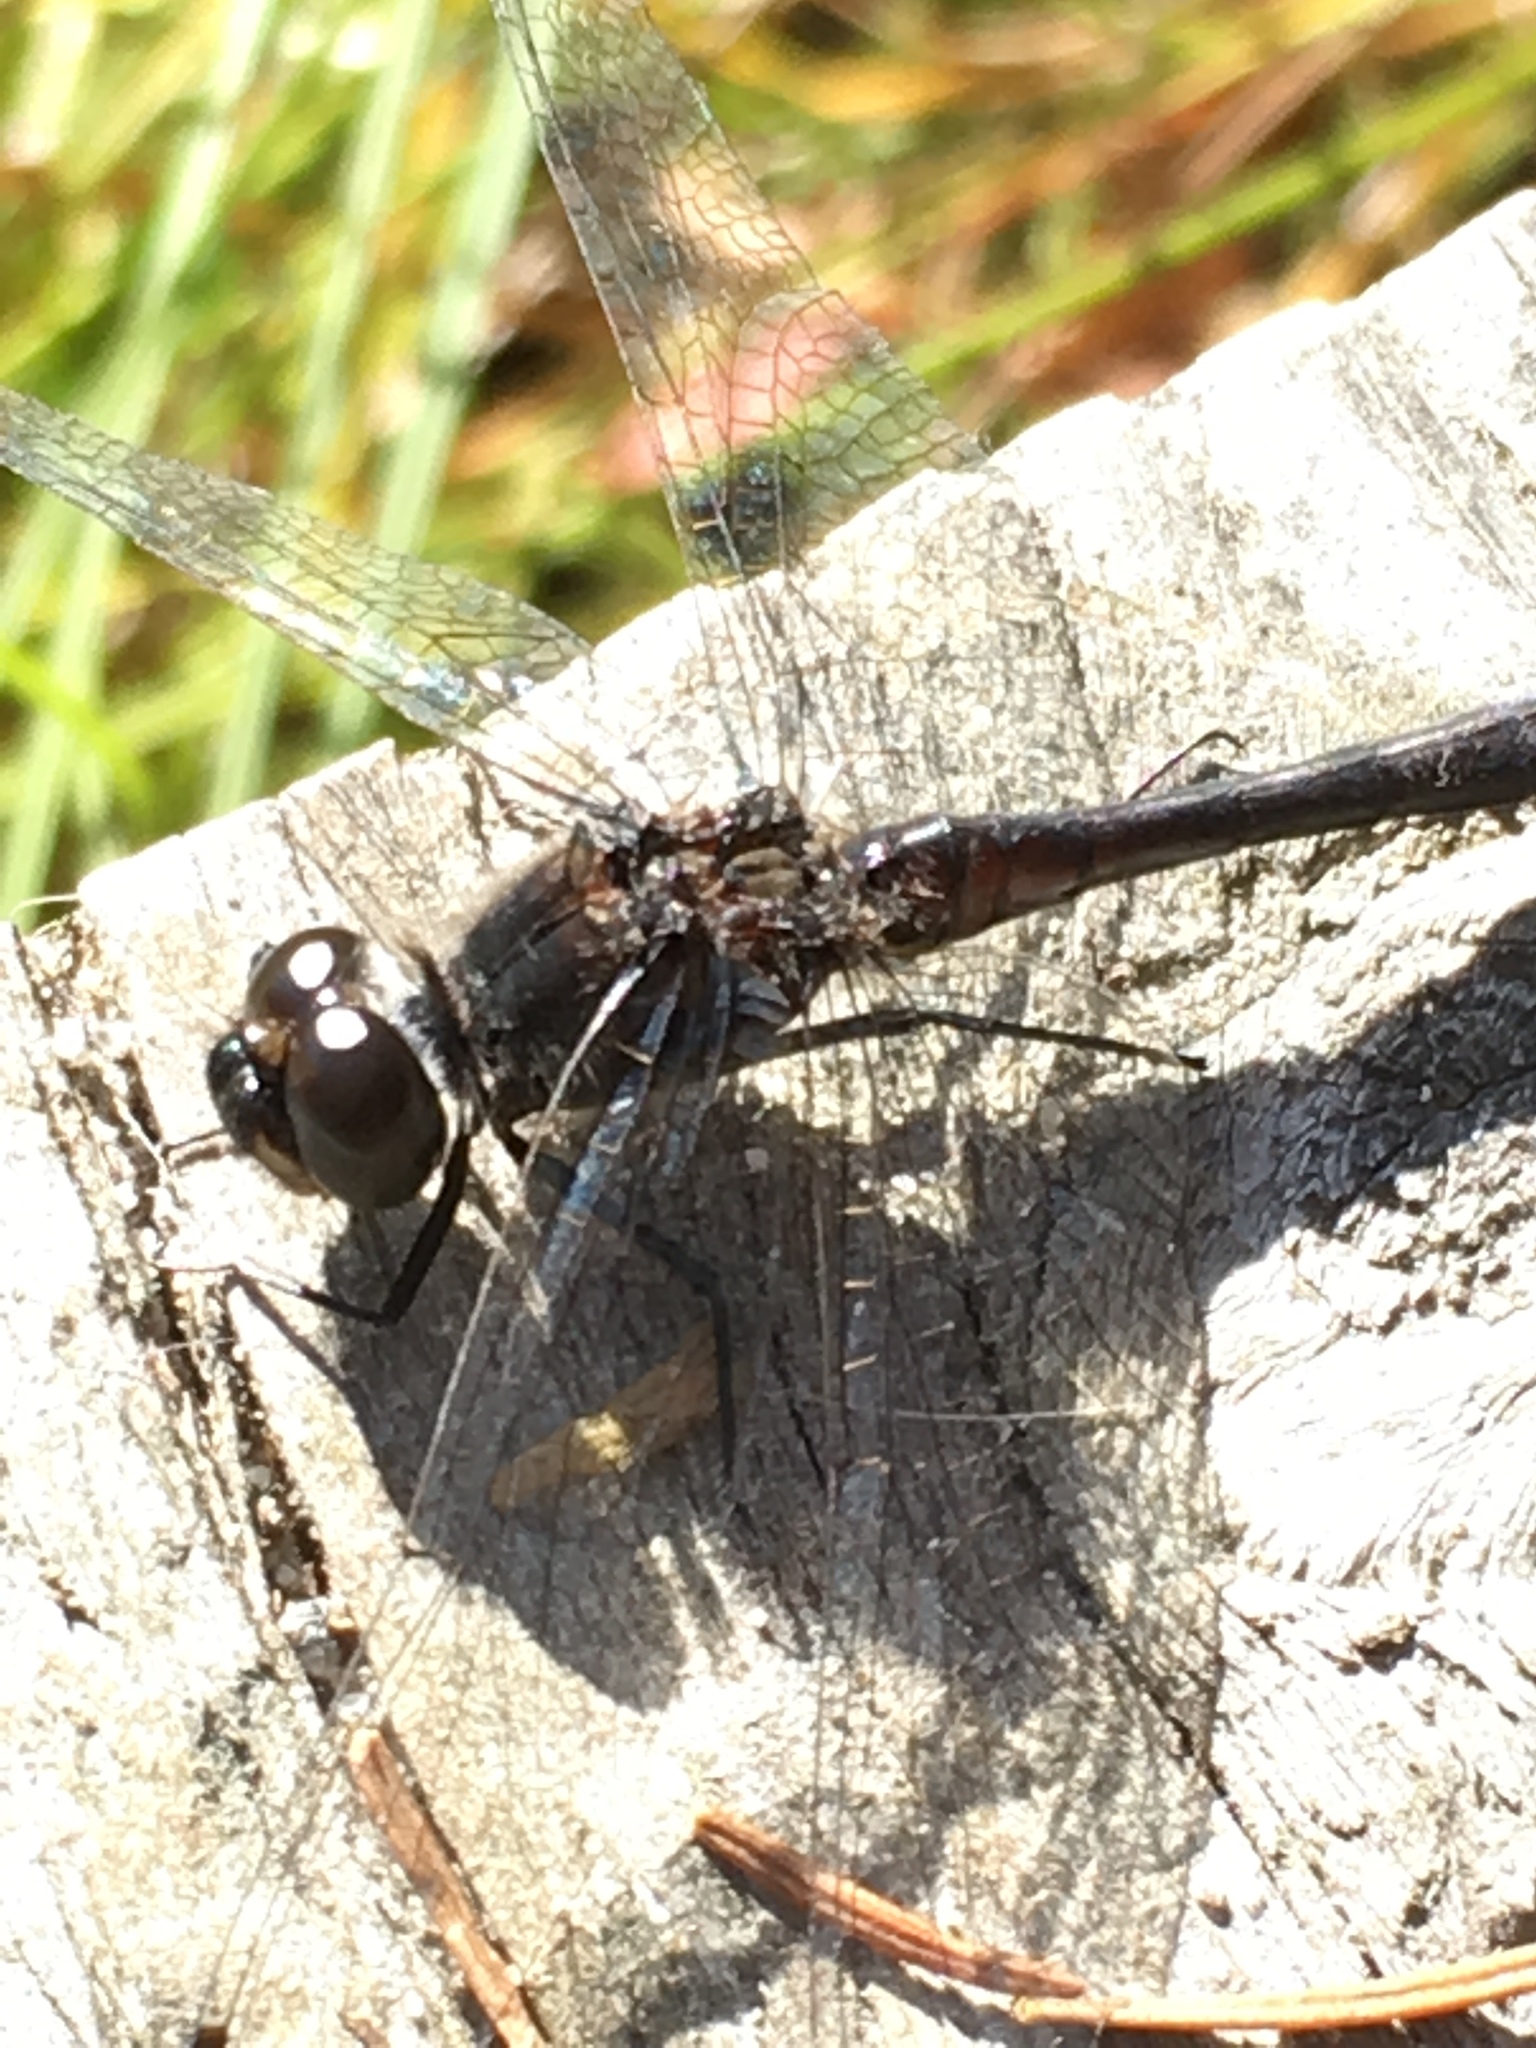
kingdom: Animalia
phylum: Arthropoda
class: Insecta
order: Odonata
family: Libellulidae
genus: Sympetrum
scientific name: Sympetrum danae
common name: Black darter
